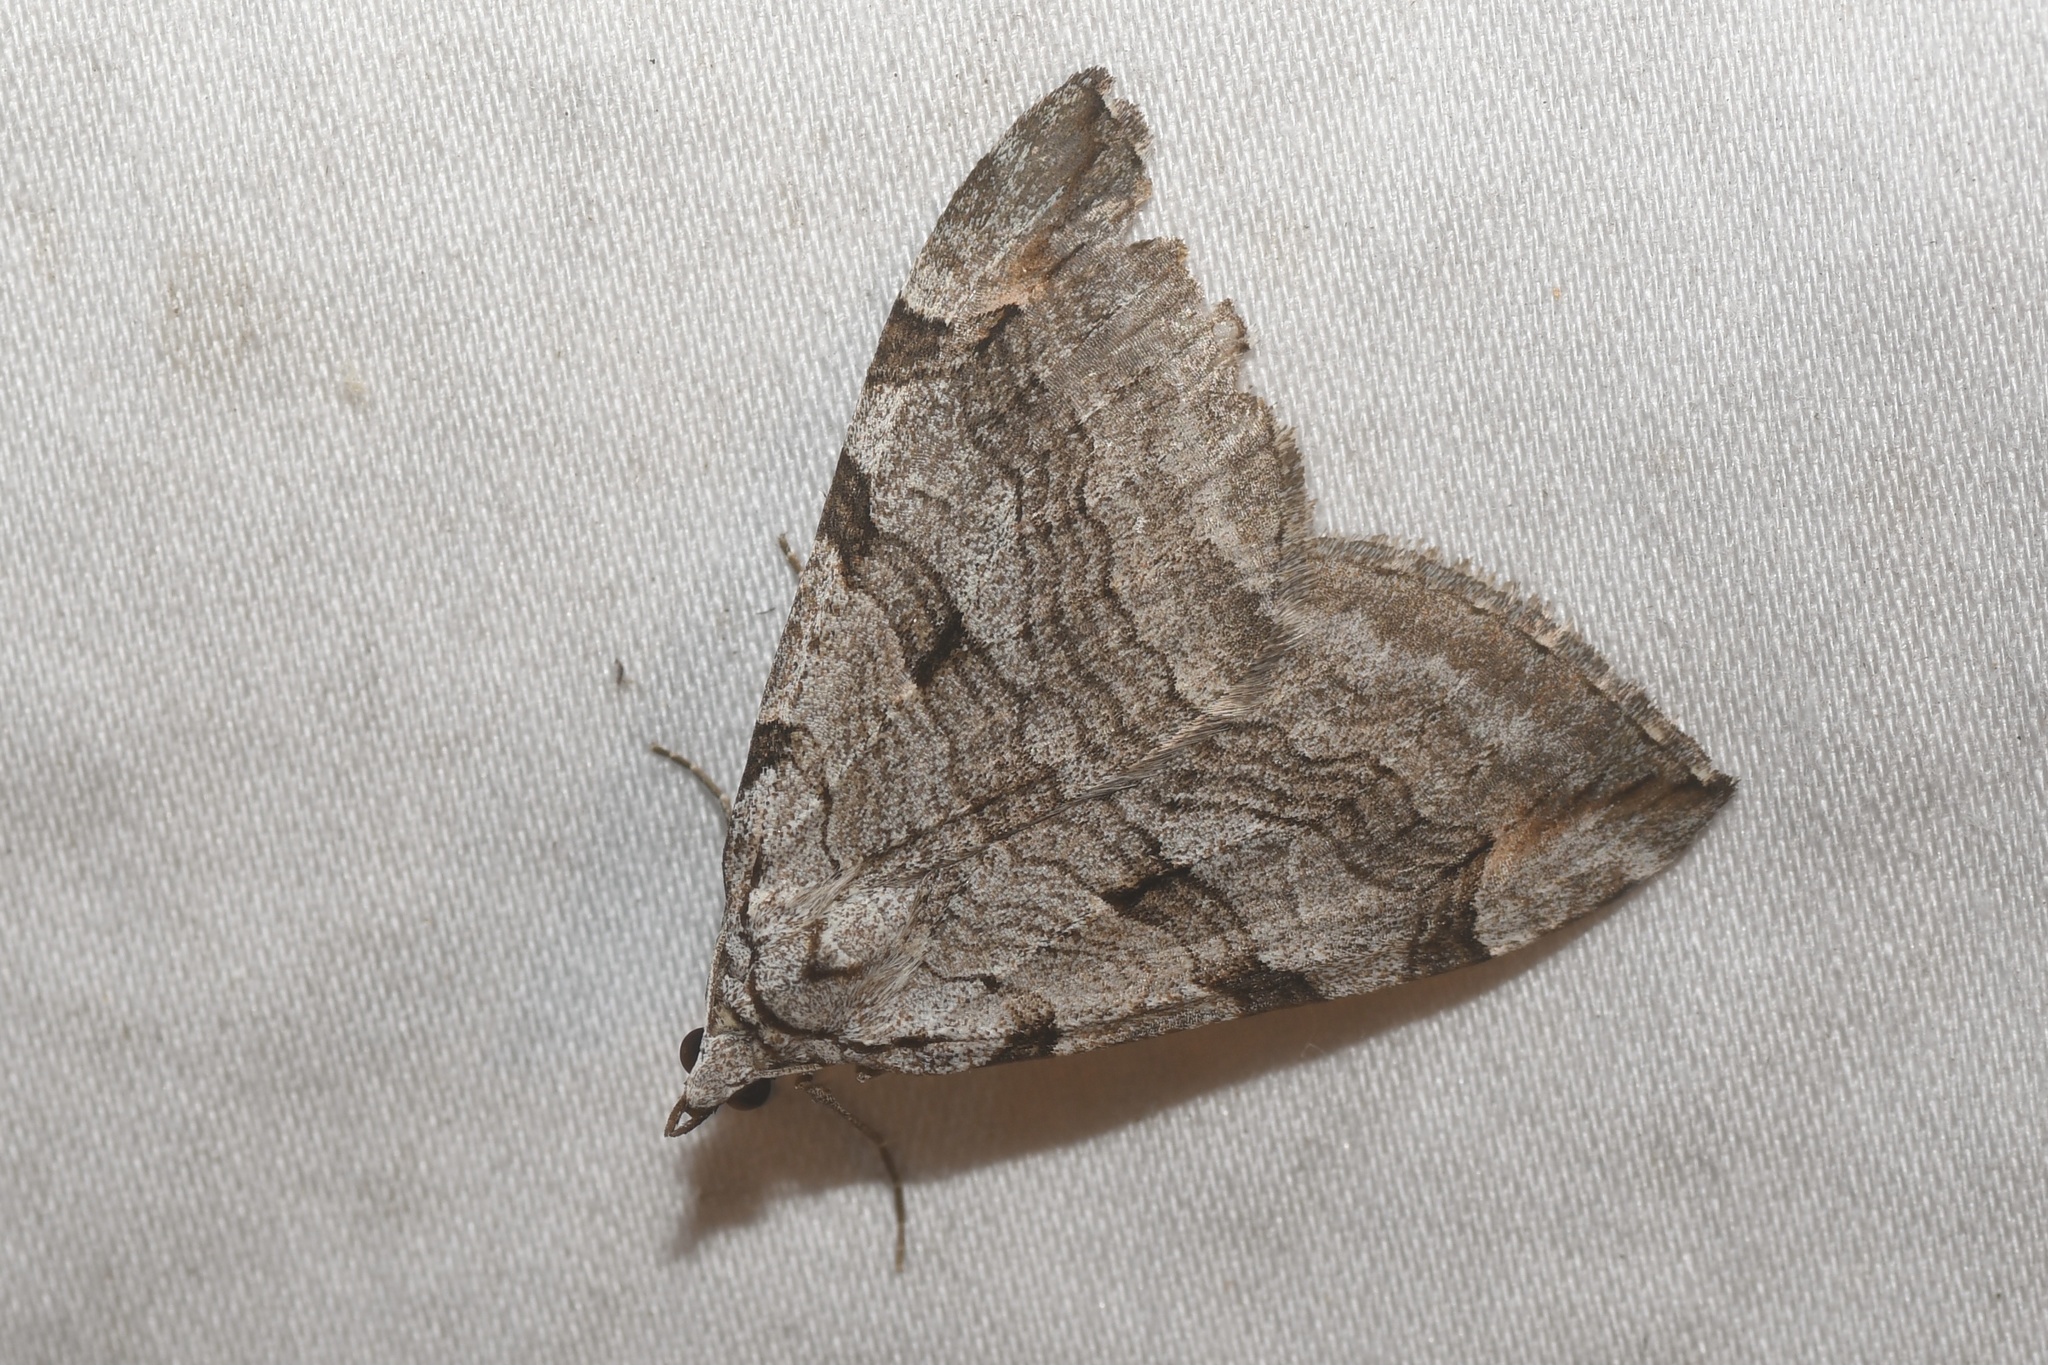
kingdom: Animalia
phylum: Arthropoda
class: Insecta
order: Lepidoptera
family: Geometridae
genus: Aplocera
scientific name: Aplocera plagiata
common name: Treble-bar
